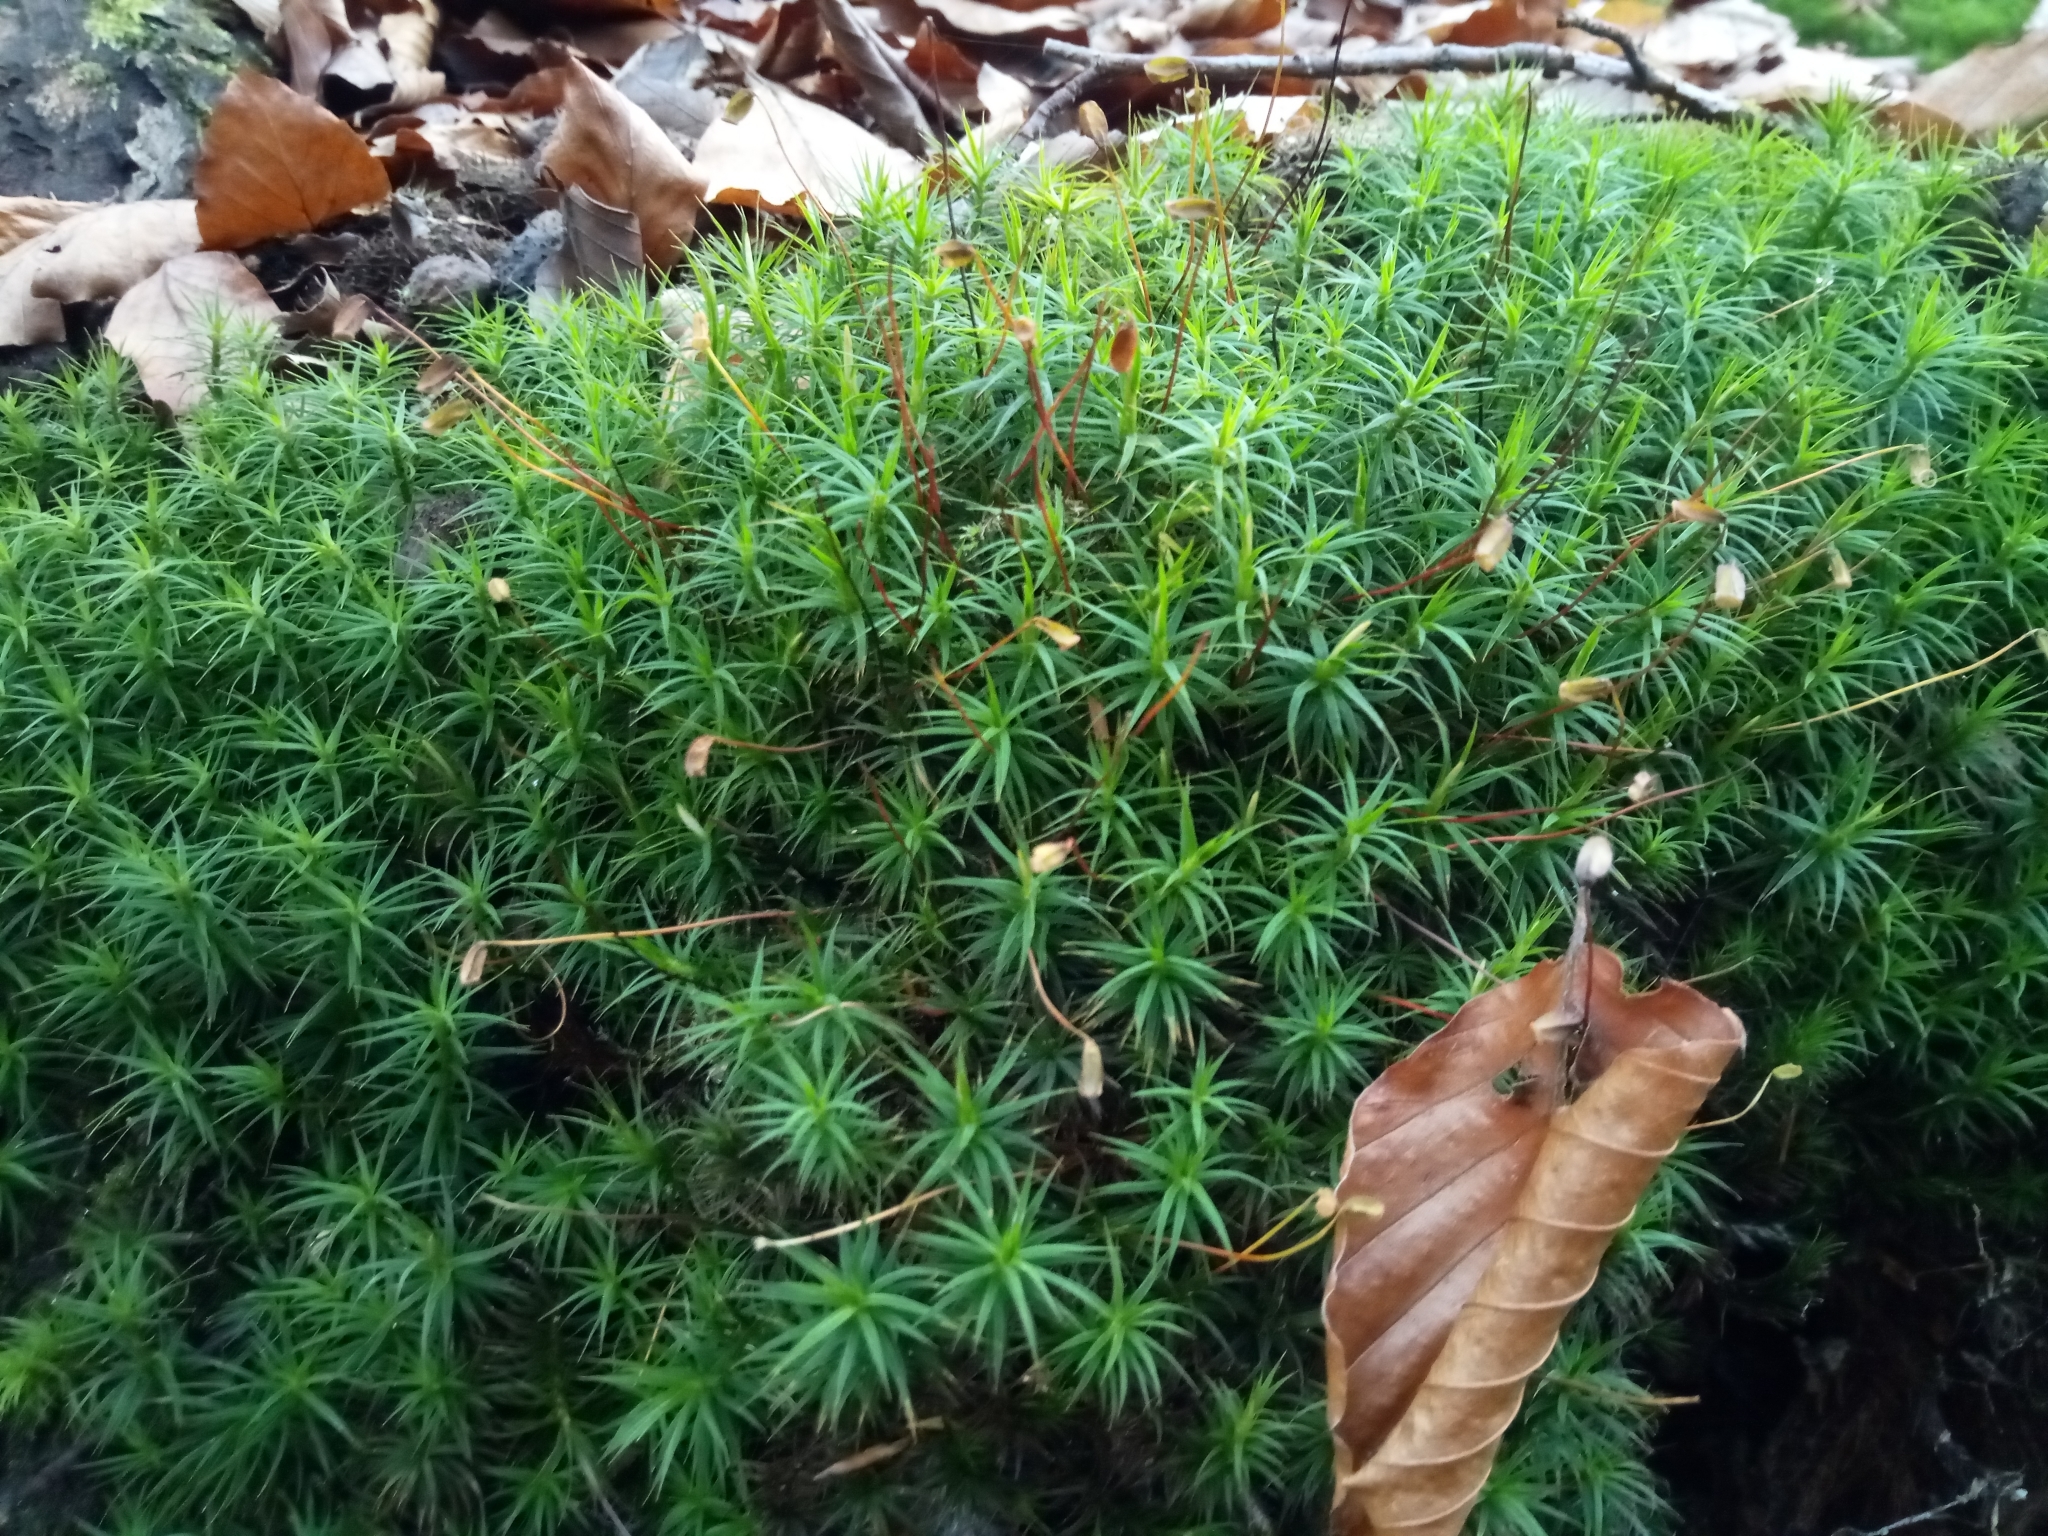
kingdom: Plantae
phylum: Bryophyta
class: Polytrichopsida
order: Polytrichales
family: Polytrichaceae
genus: Polytrichum
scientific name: Polytrichum formosum
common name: Bank haircap moss
